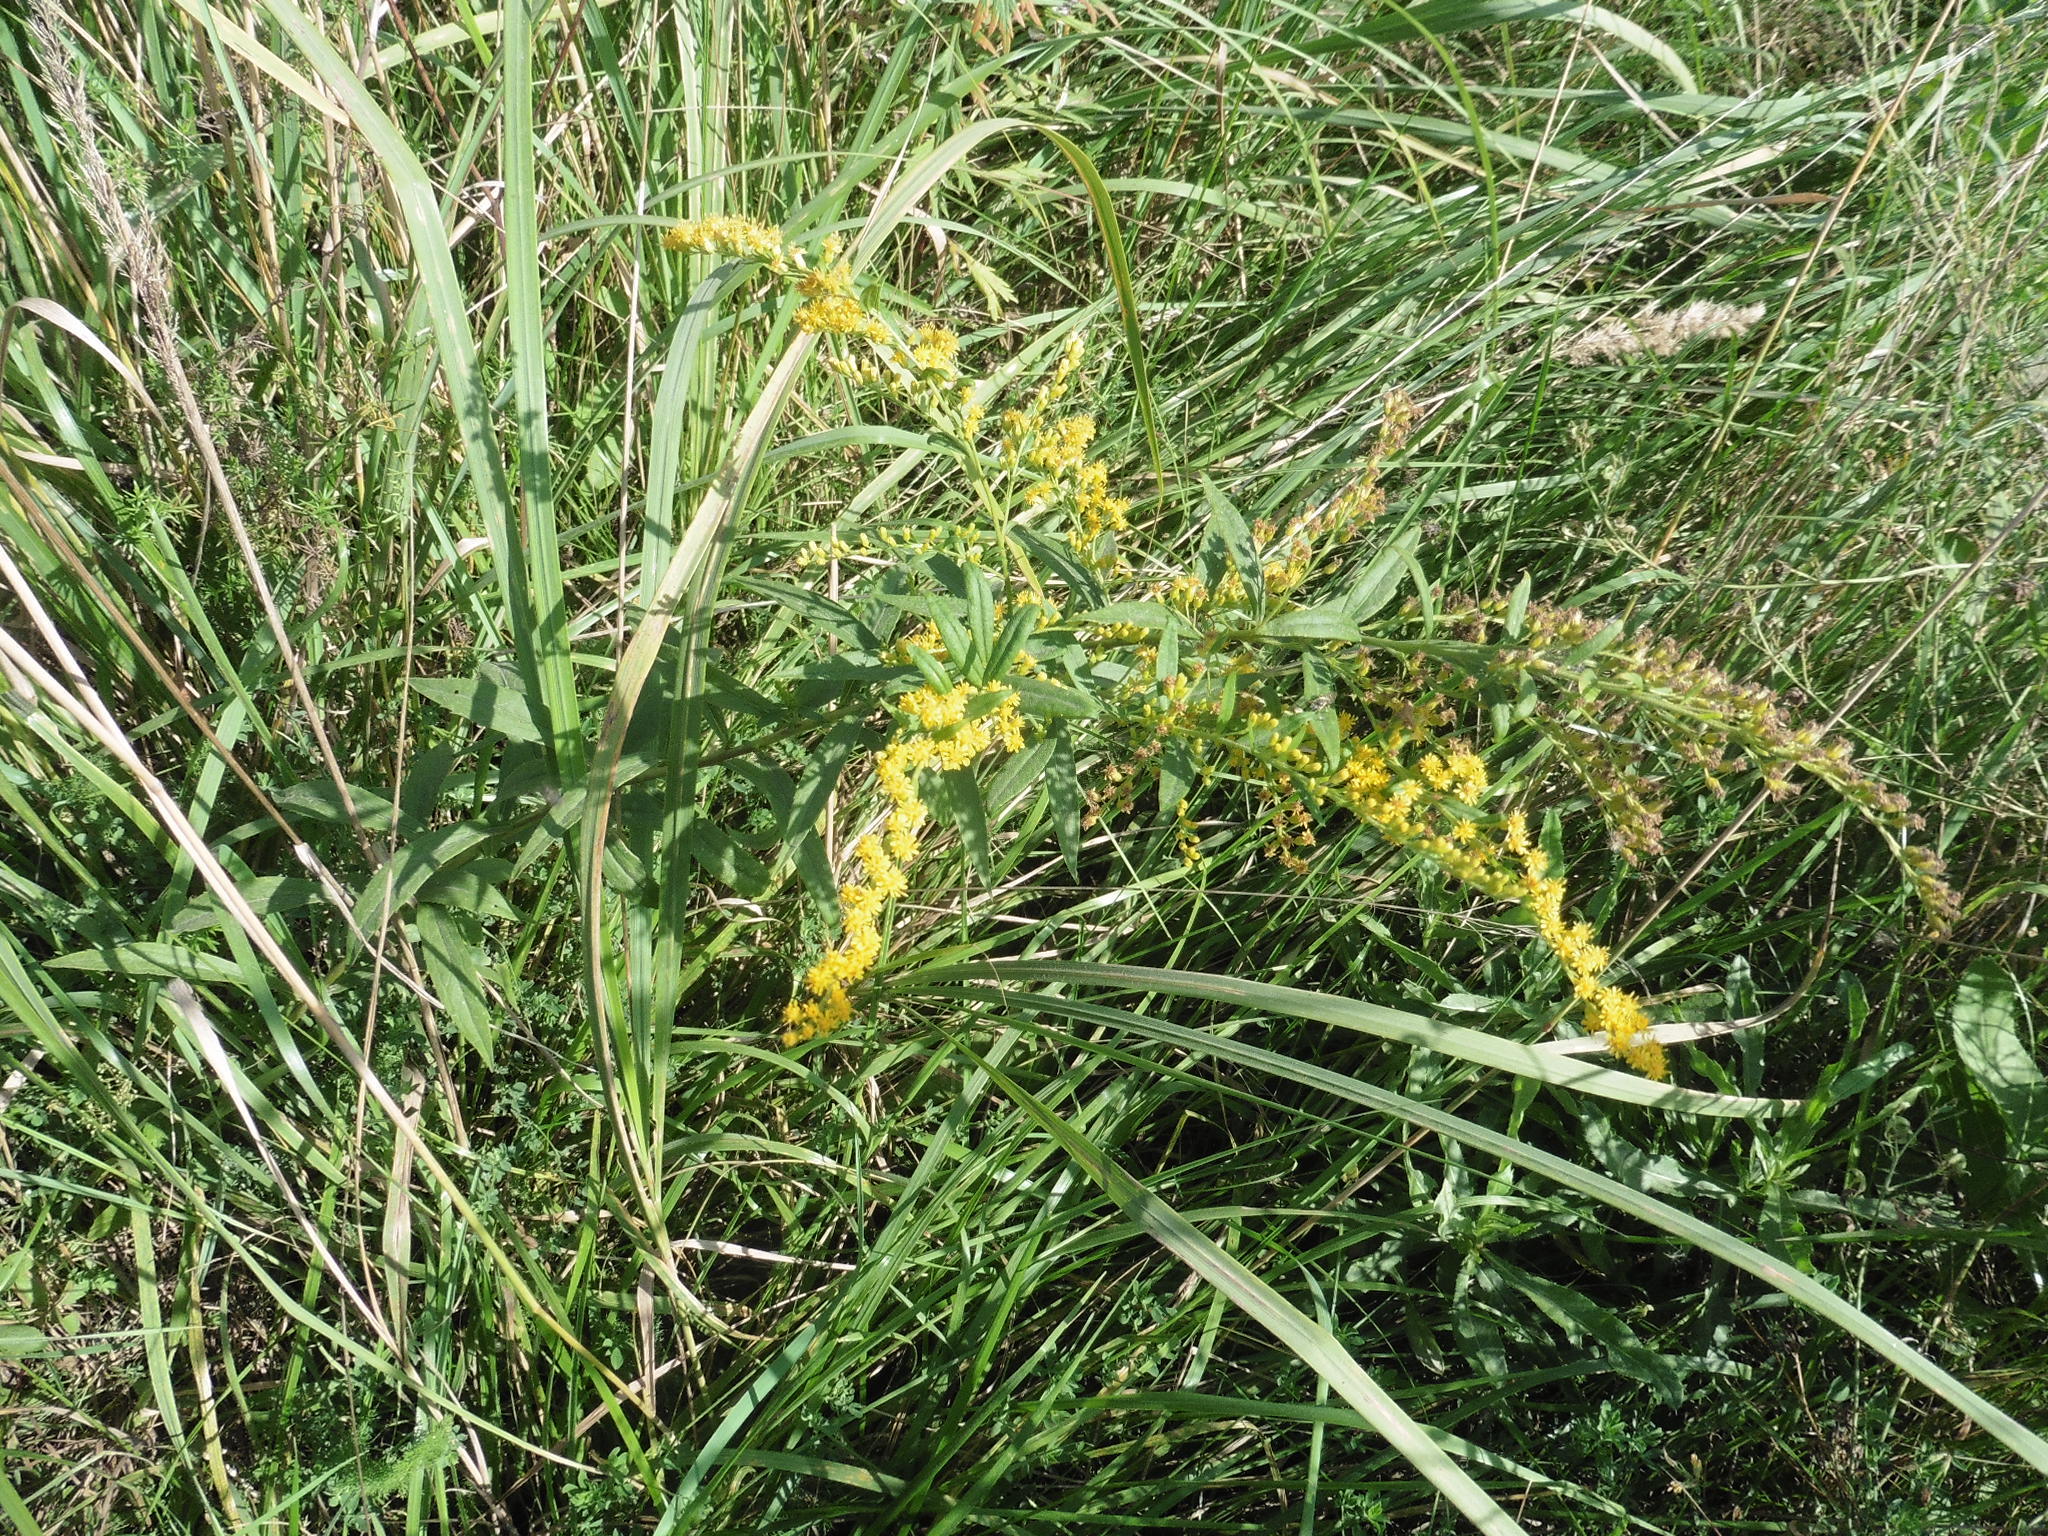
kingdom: Plantae
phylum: Tracheophyta
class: Magnoliopsida
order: Asterales
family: Asteraceae
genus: Solidago
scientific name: Solidago canadensis
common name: Canada goldenrod
